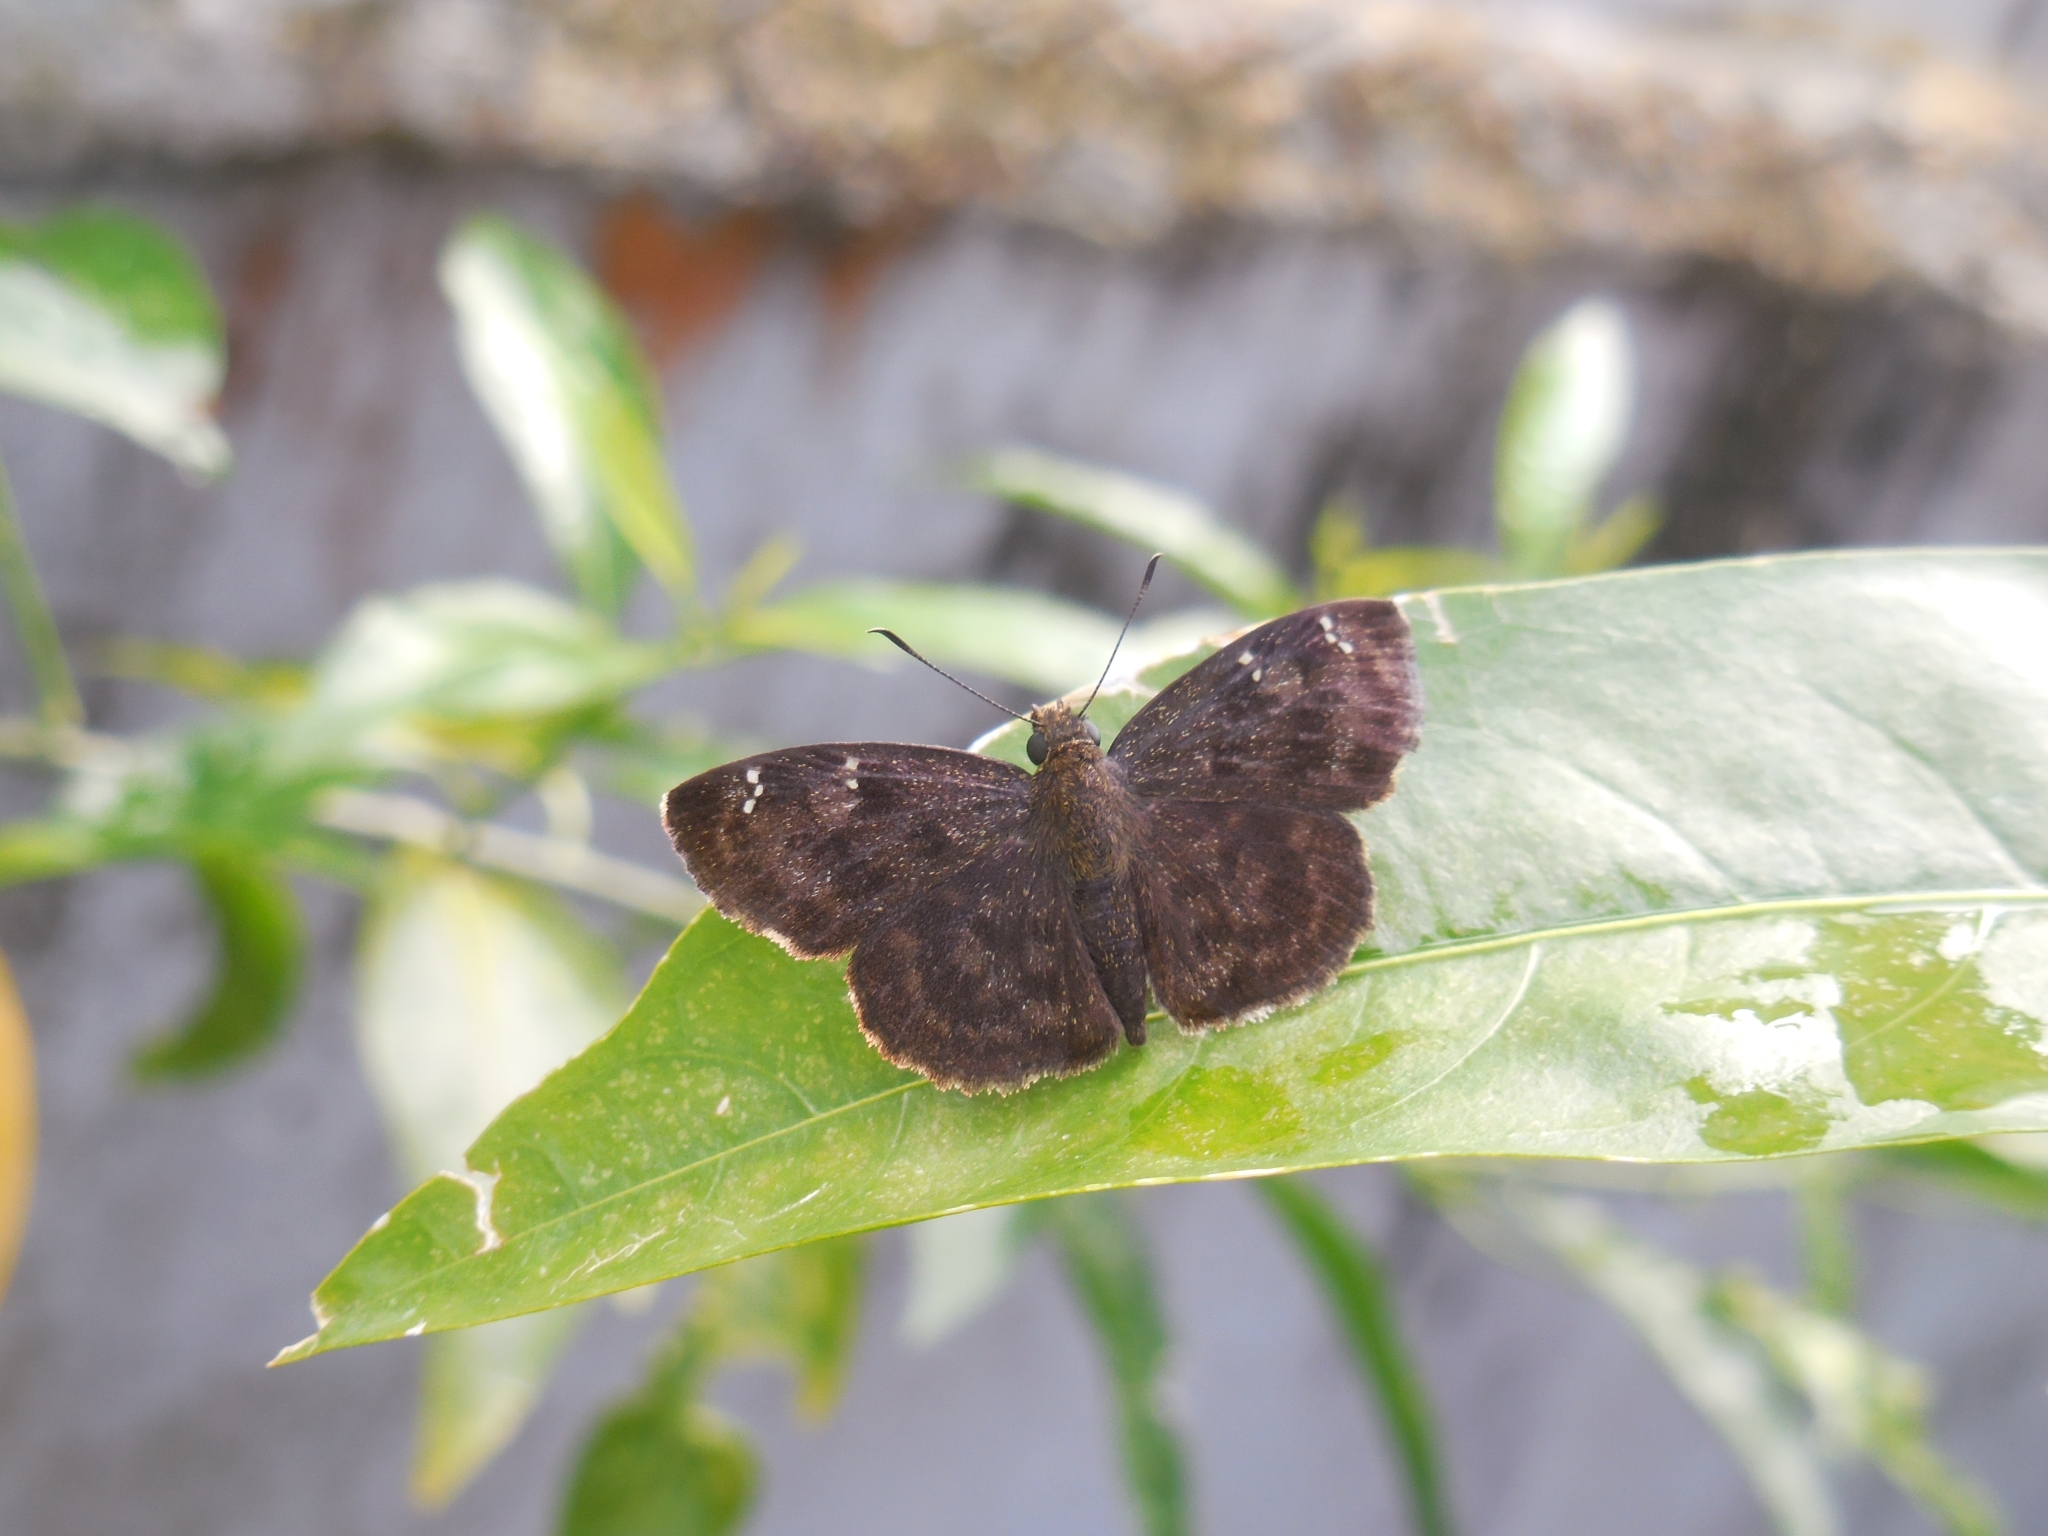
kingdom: Animalia
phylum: Arthropoda
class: Insecta
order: Lepidoptera
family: Hesperiidae
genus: Sarangesa
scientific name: Sarangesa dasahara
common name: Common small flat
